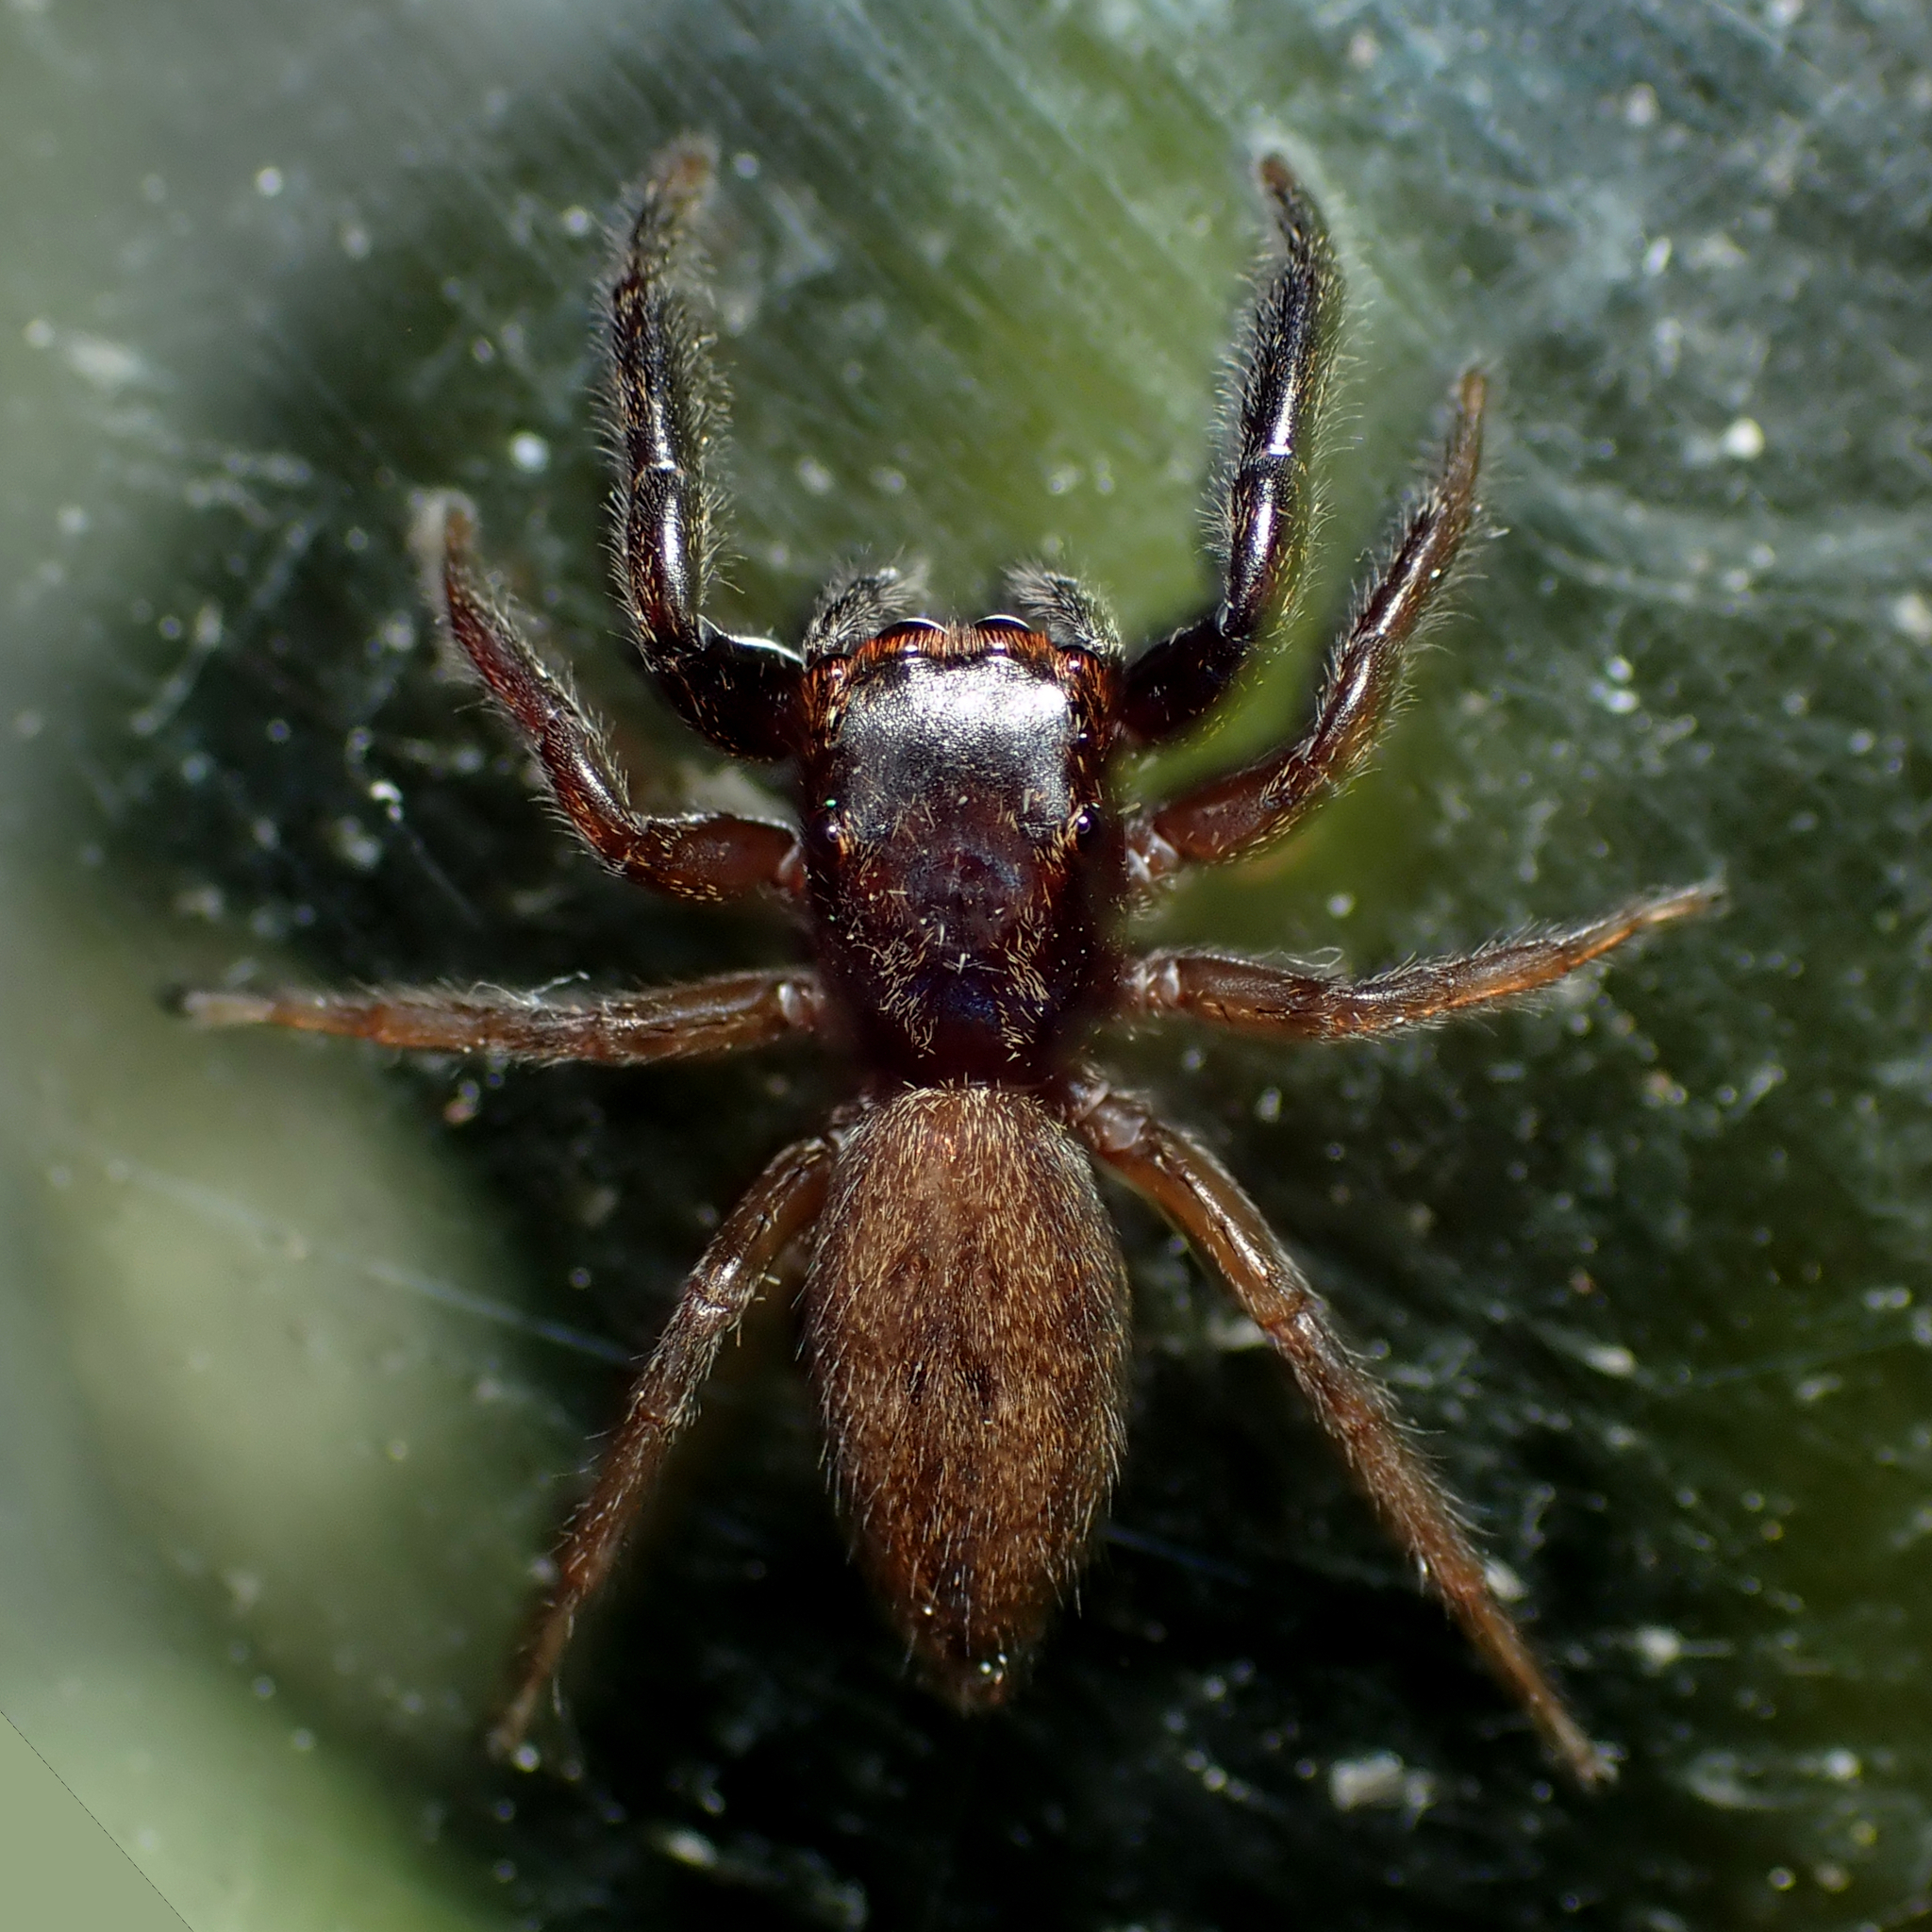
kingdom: Animalia
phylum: Arthropoda
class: Arachnida
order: Araneae
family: Salticidae
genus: Trite
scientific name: Trite auricoma
